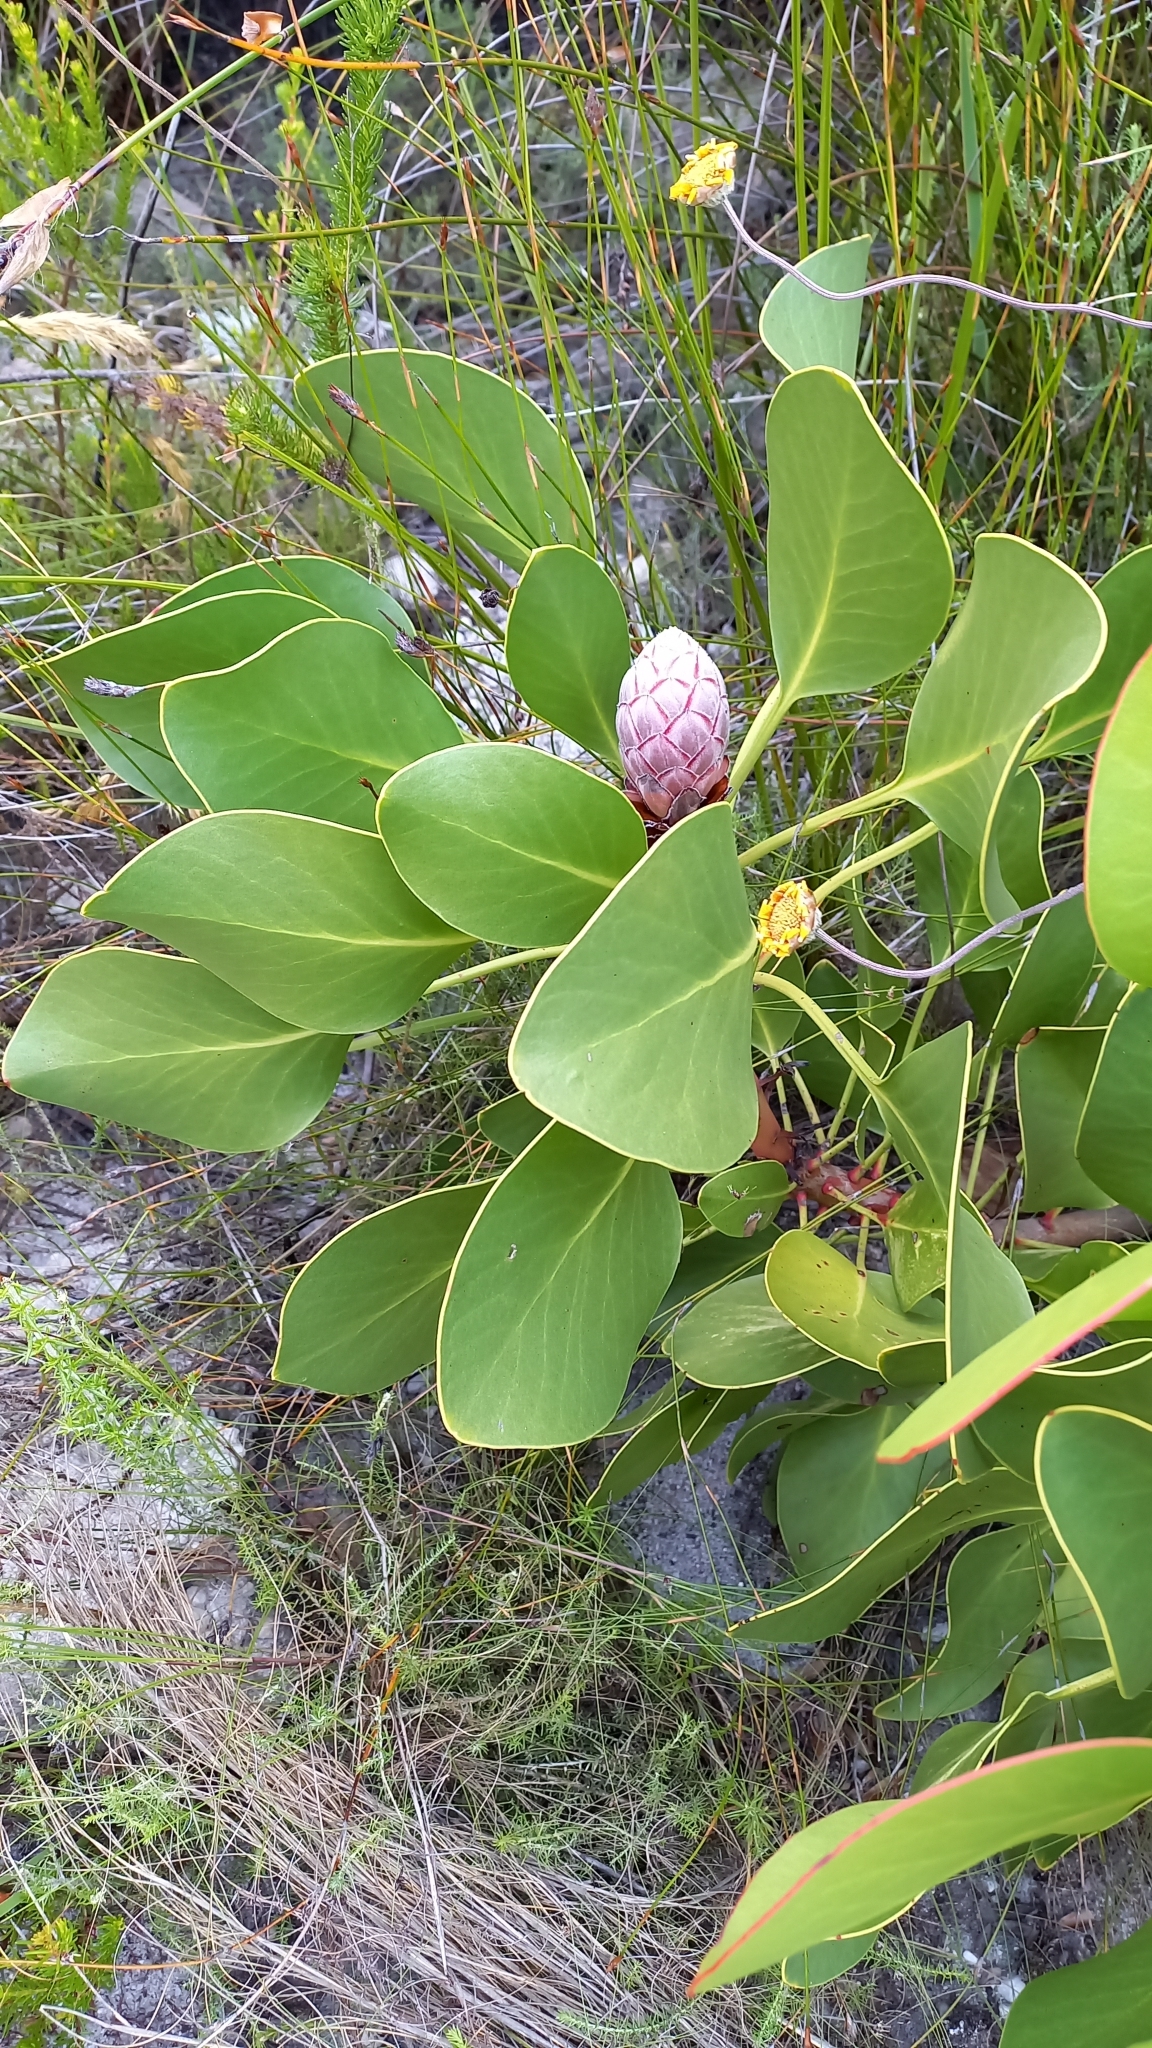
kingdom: Plantae
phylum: Tracheophyta
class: Magnoliopsida
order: Proteales
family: Proteaceae
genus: Protea
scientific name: Protea cynaroides
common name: King protea
